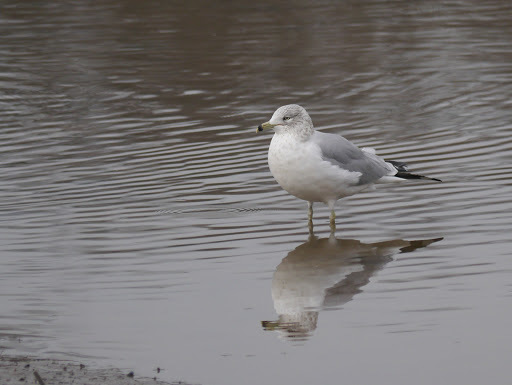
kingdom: Animalia
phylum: Chordata
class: Aves
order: Charadriiformes
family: Laridae
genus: Larus
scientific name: Larus delawarensis
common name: Ring-billed gull
